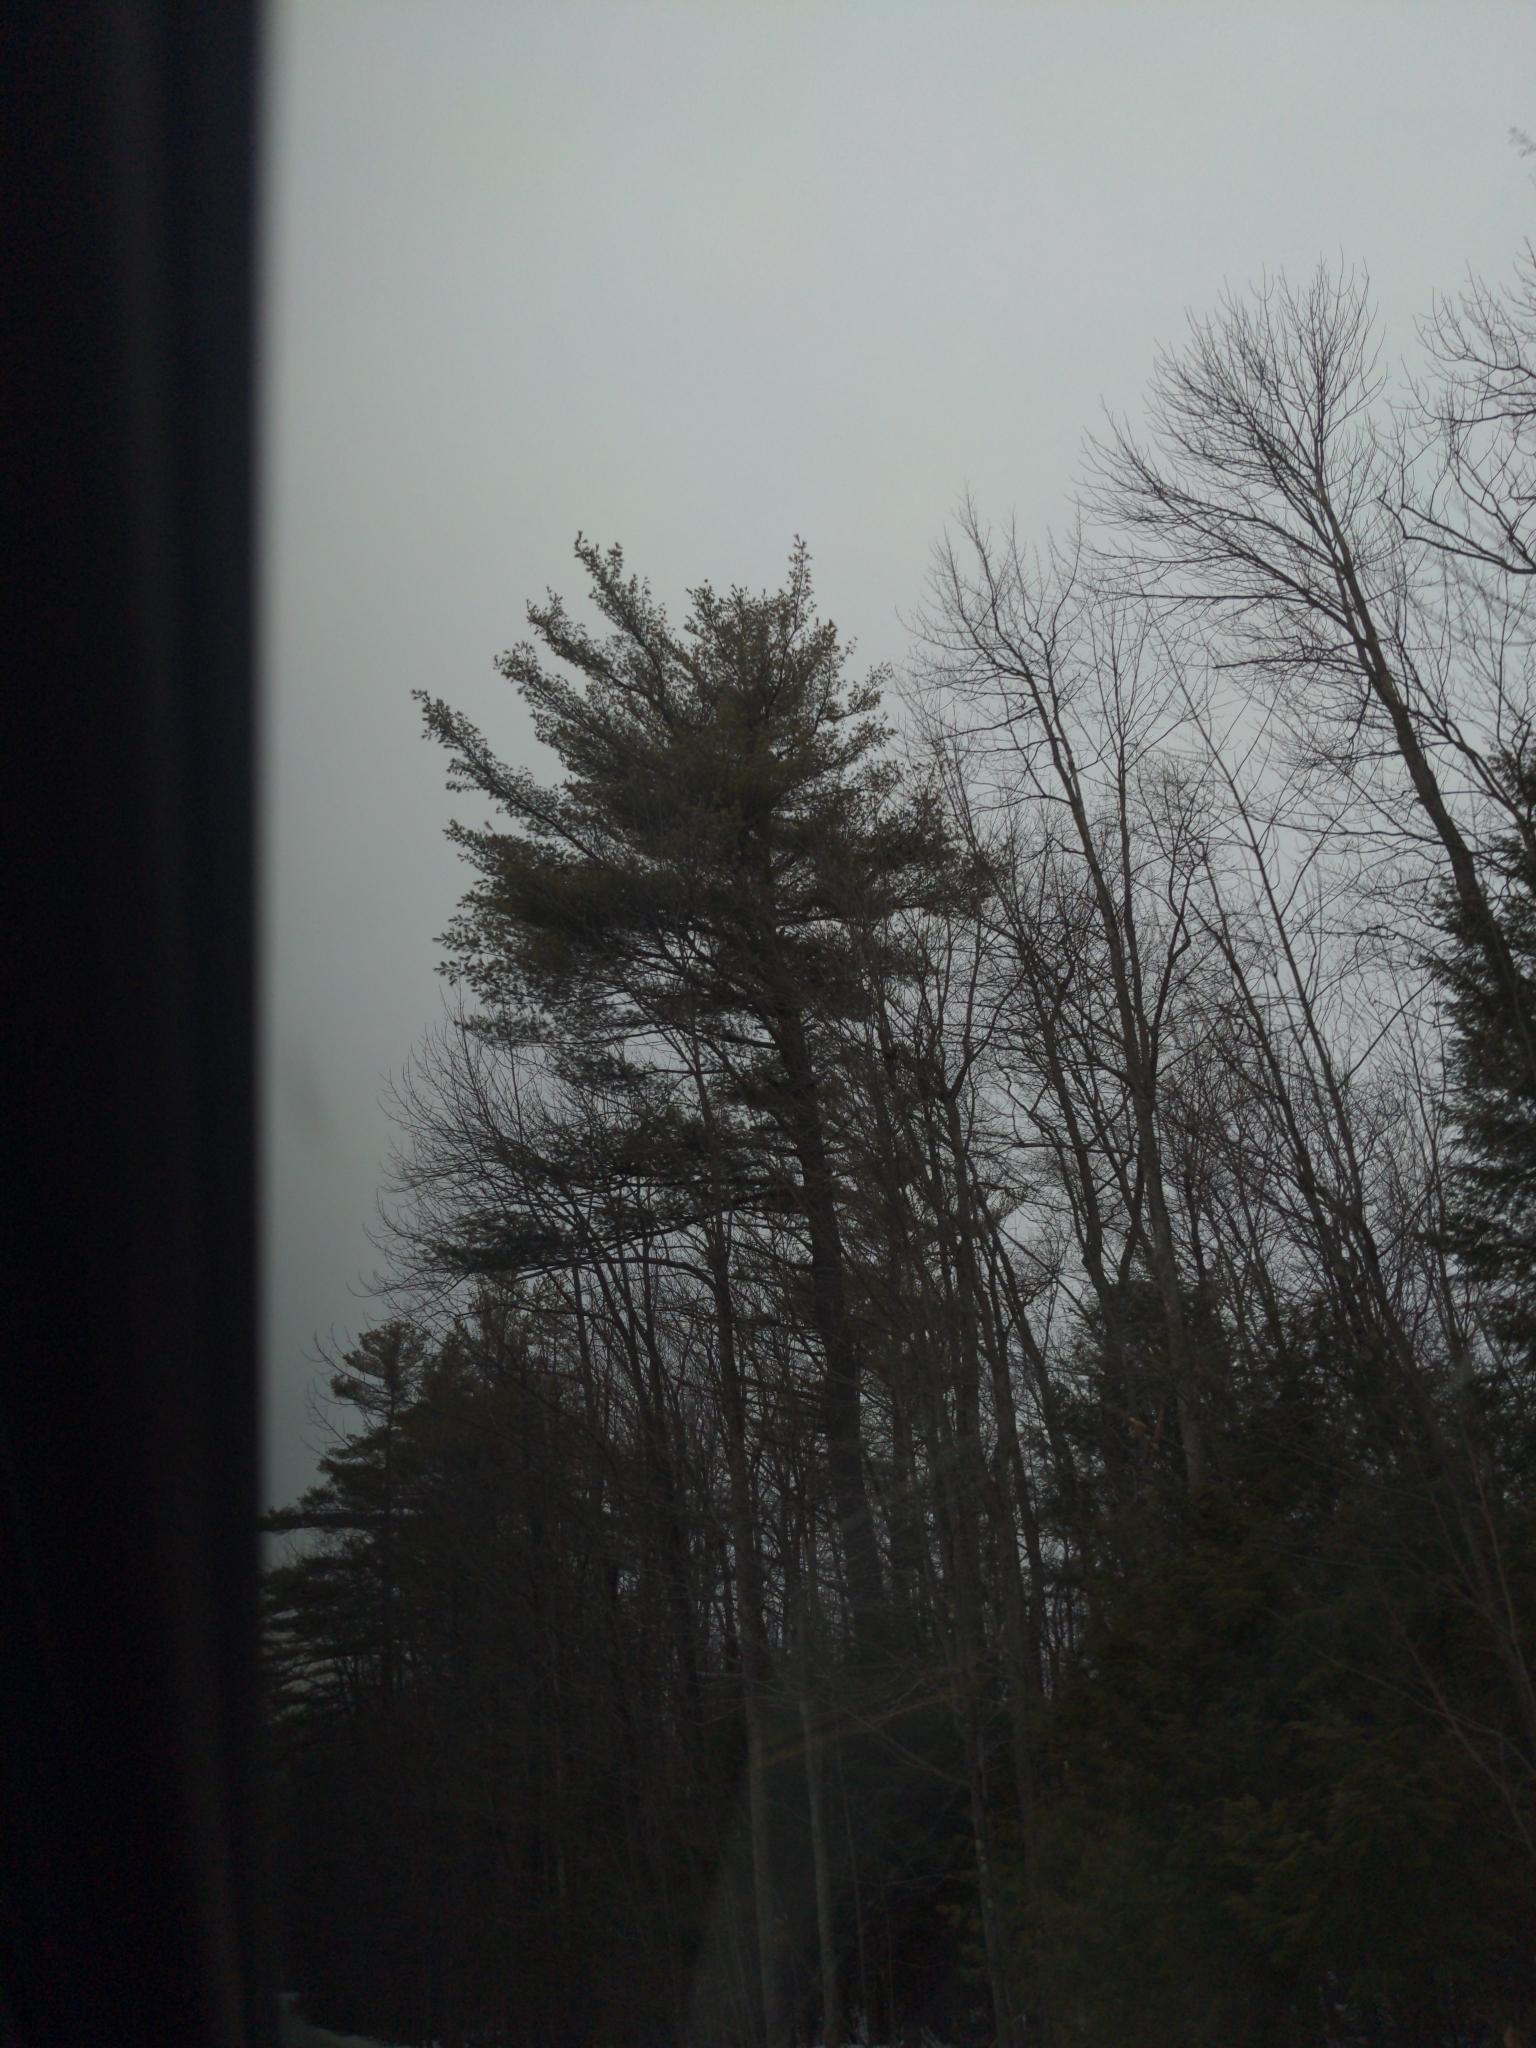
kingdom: Plantae
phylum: Tracheophyta
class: Pinopsida
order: Pinales
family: Pinaceae
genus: Pinus
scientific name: Pinus strobus
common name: Weymouth pine
